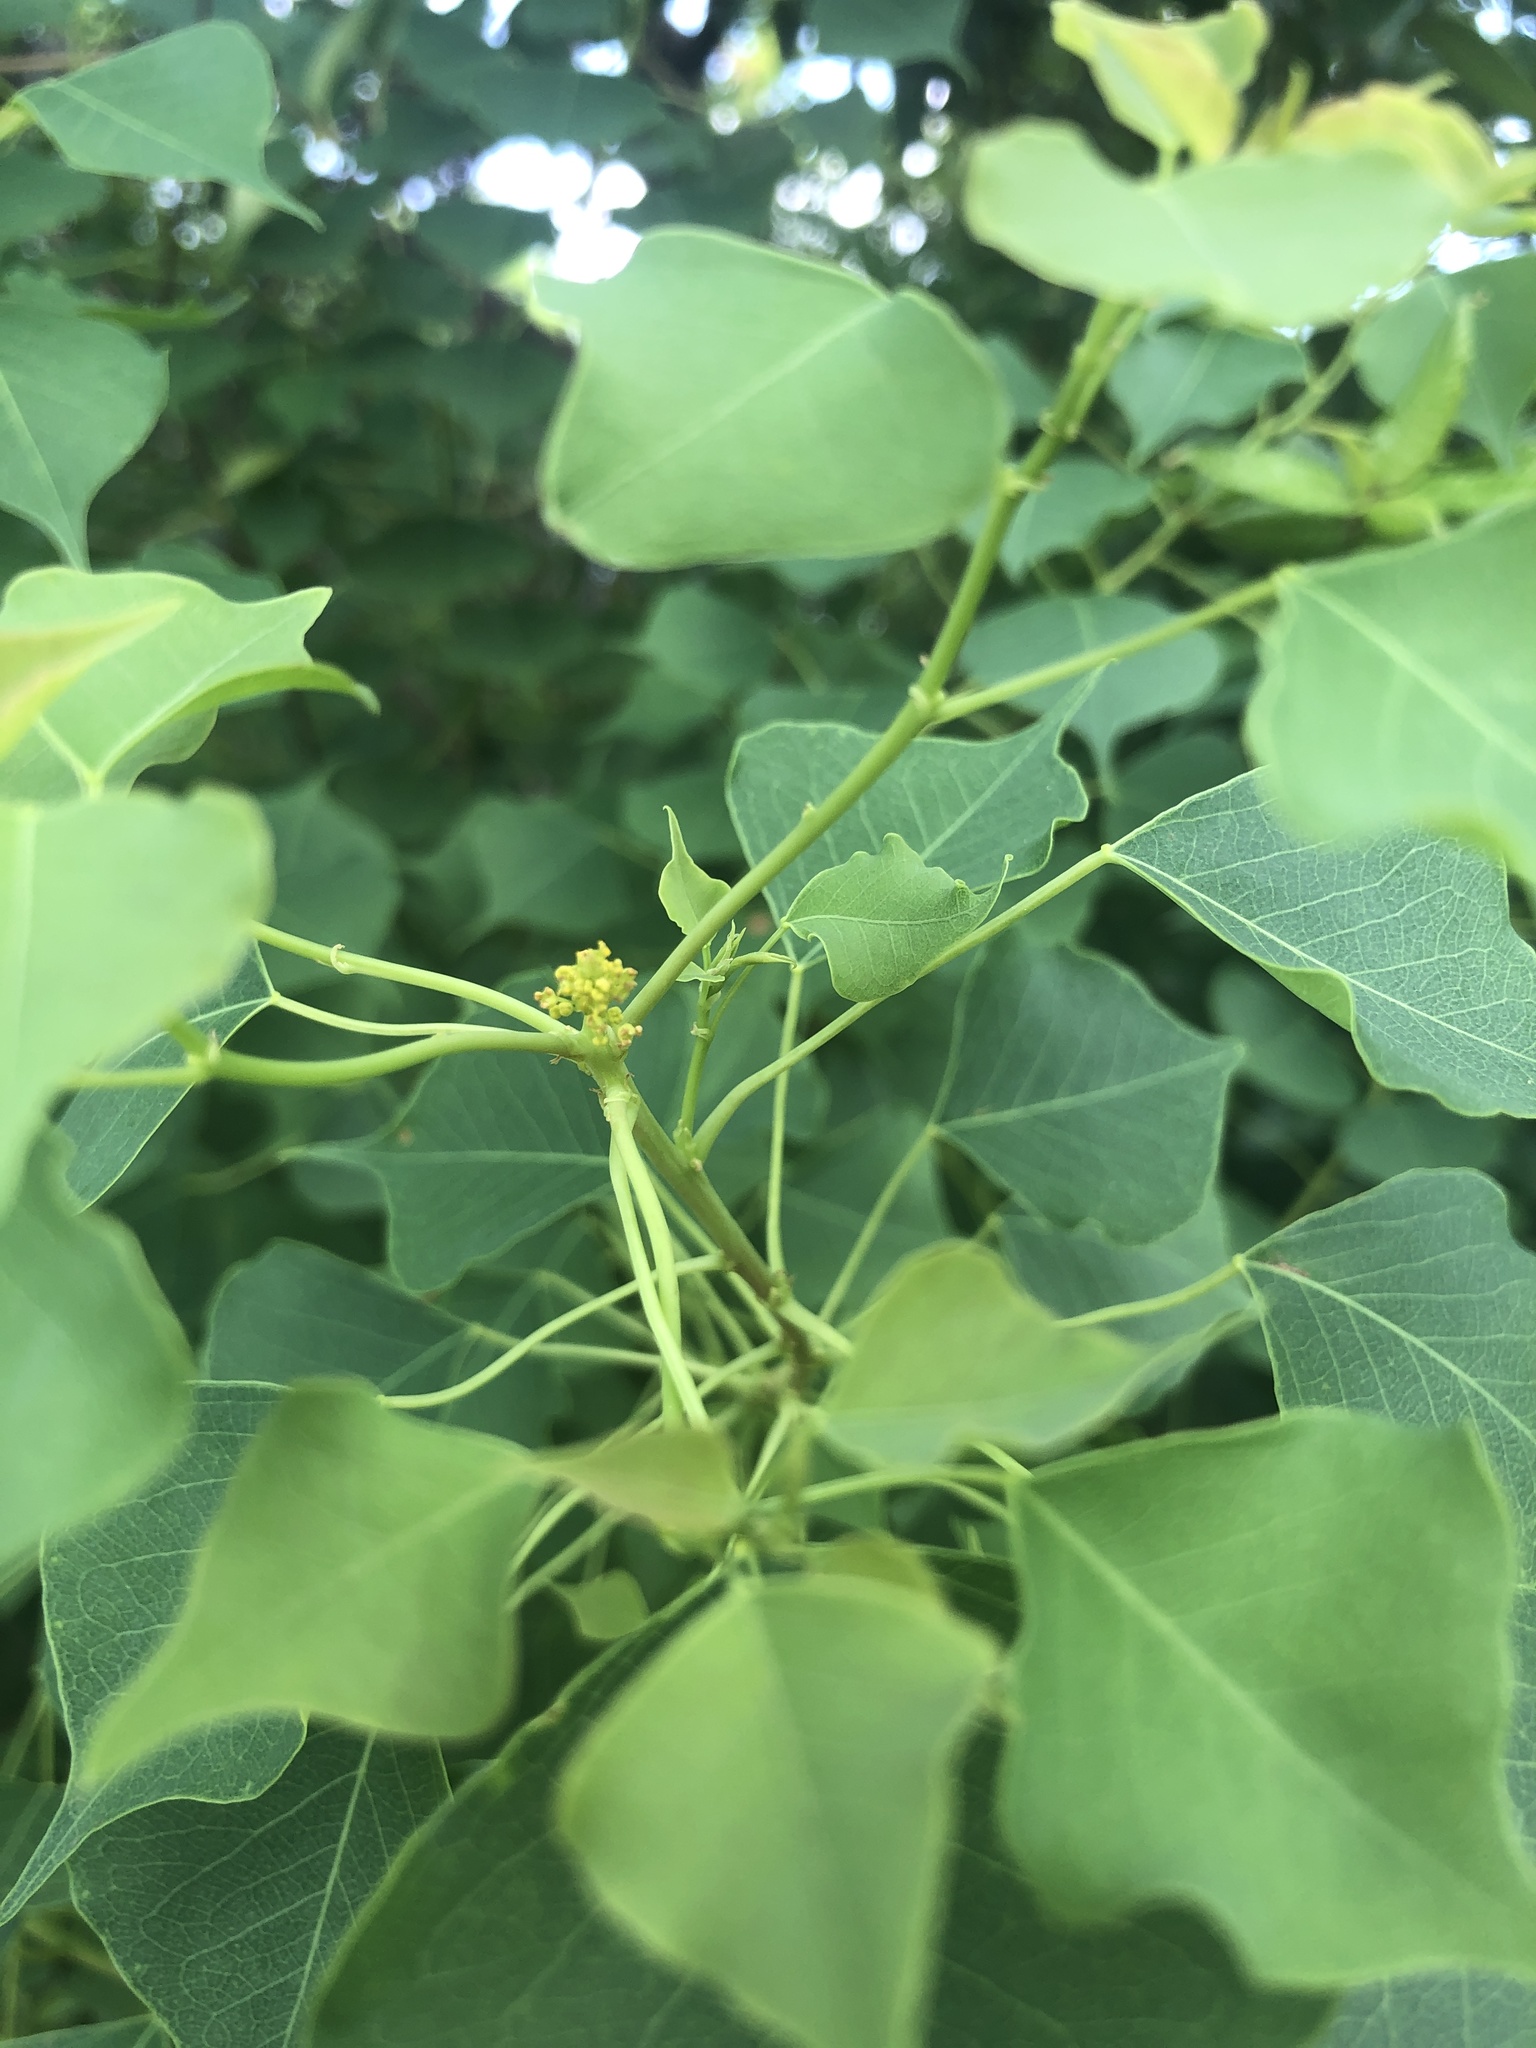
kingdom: Plantae
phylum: Tracheophyta
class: Magnoliopsida
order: Malpighiales
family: Euphorbiaceae
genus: Triadica
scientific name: Triadica sebifera
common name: Chinese tallow
